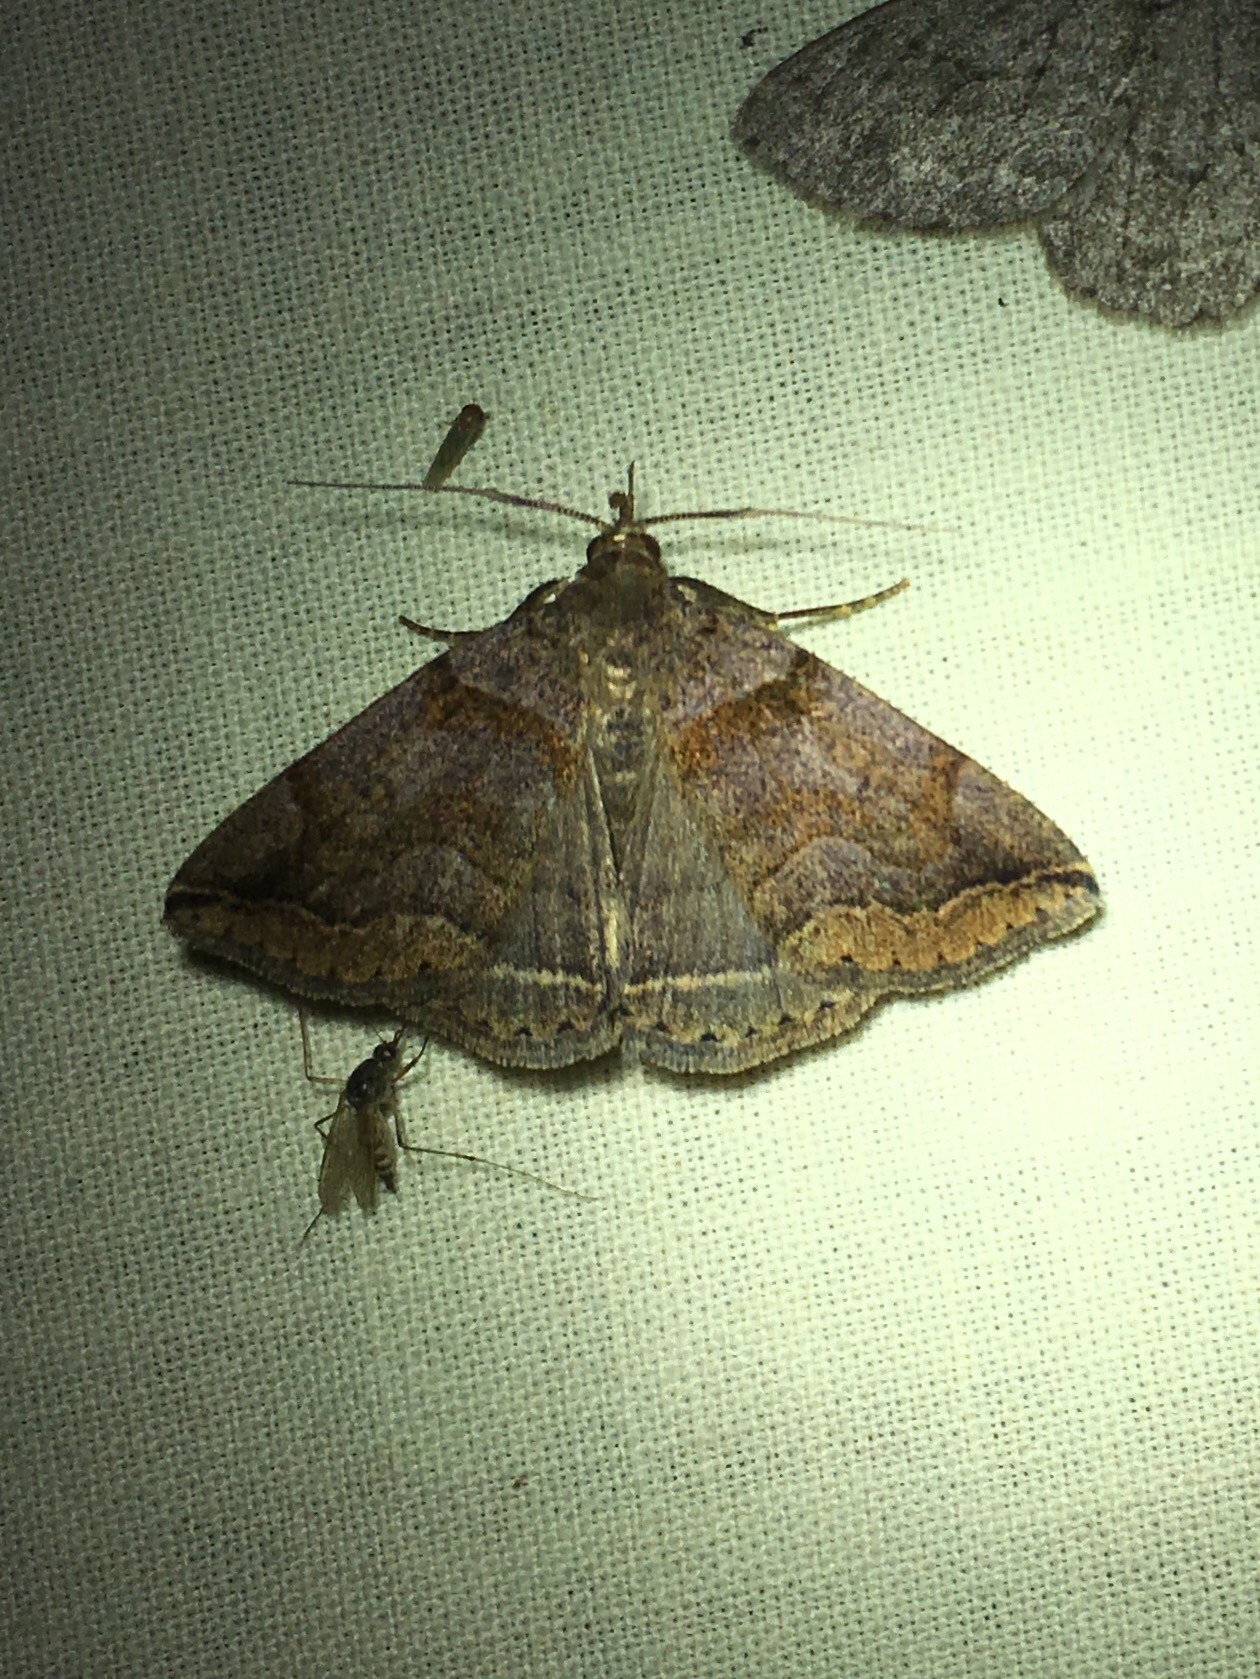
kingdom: Animalia
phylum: Arthropoda
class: Insecta
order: Lepidoptera
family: Erebidae
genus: Zanclognatha
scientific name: Zanclognatha laevigata
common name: Variable fan-foot
